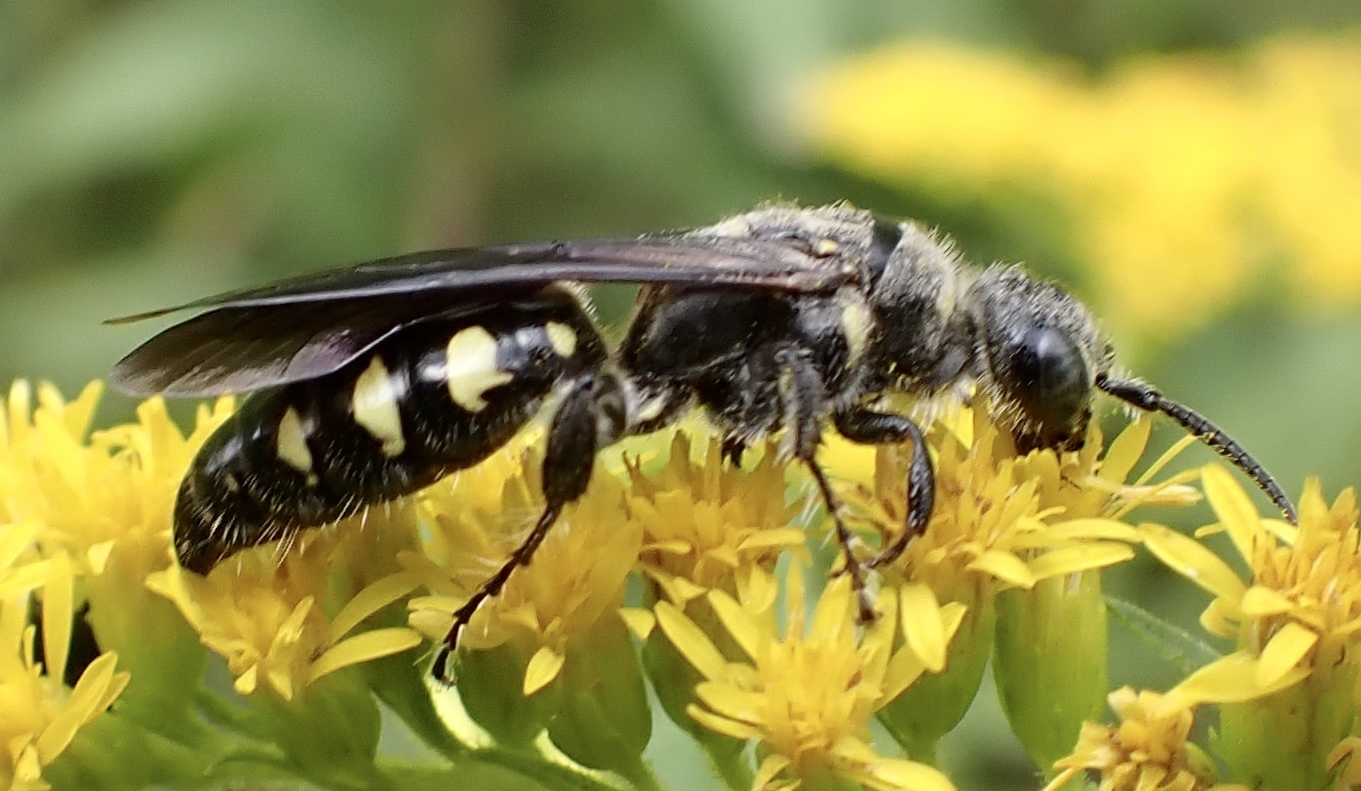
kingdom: Animalia
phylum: Arthropoda
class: Insecta
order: Hymenoptera
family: Tiphiidae
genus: Myzinum
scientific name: Myzinum obscurum
